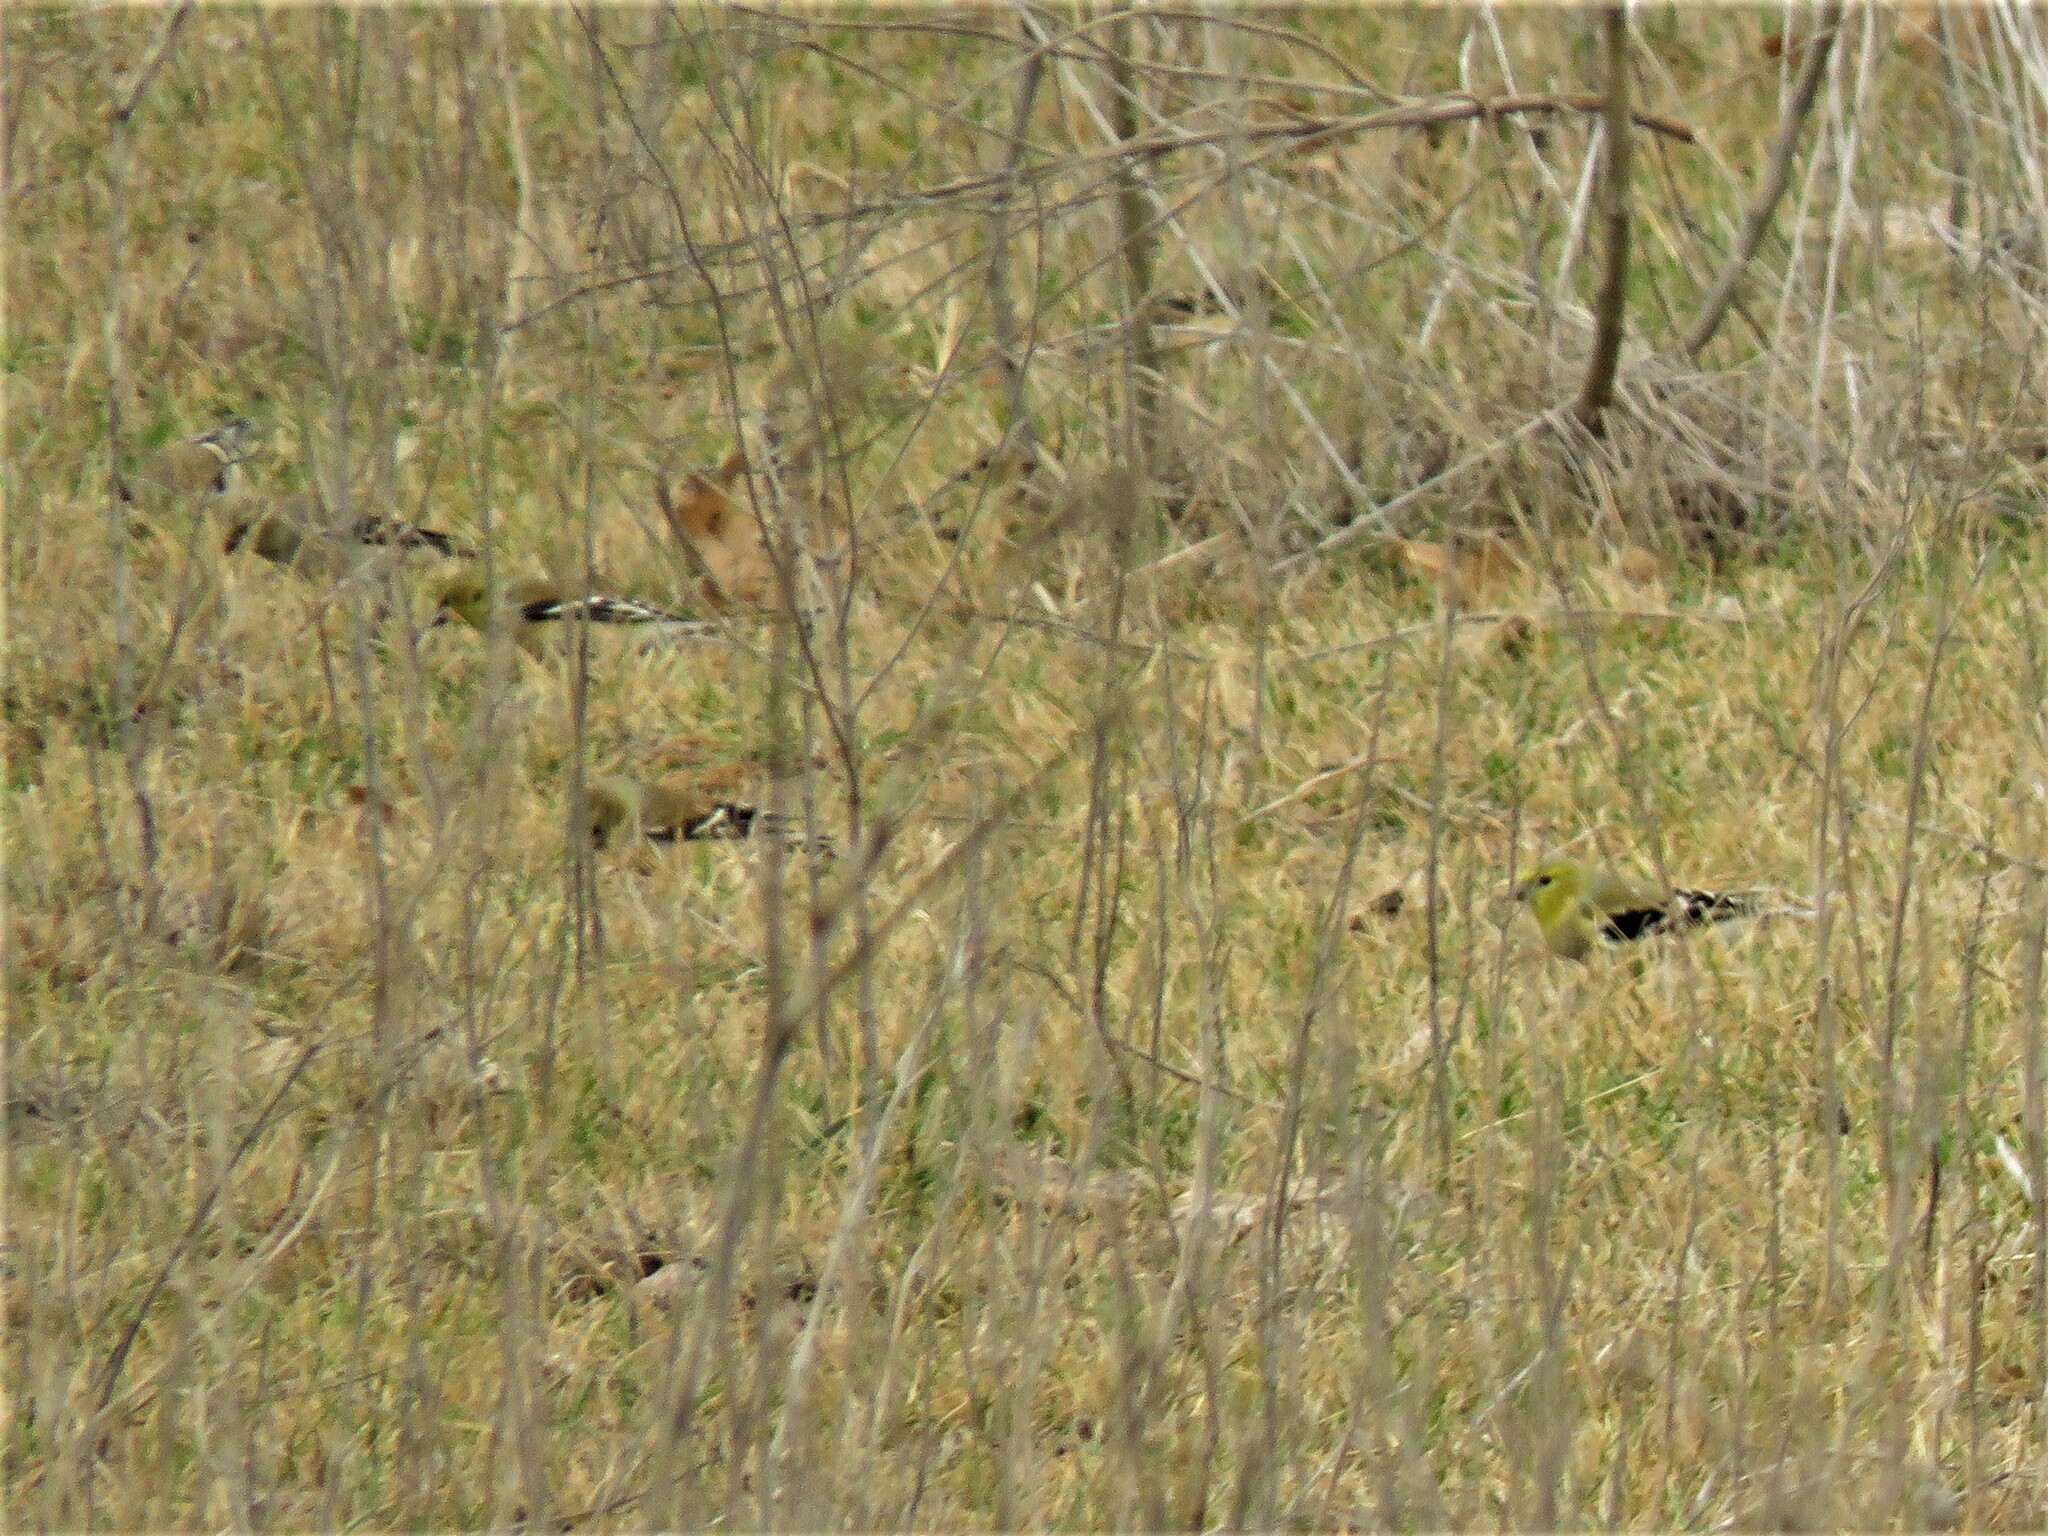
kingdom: Animalia
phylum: Chordata
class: Aves
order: Passeriformes
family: Fringillidae
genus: Spinus
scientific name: Spinus tristis
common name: American goldfinch
